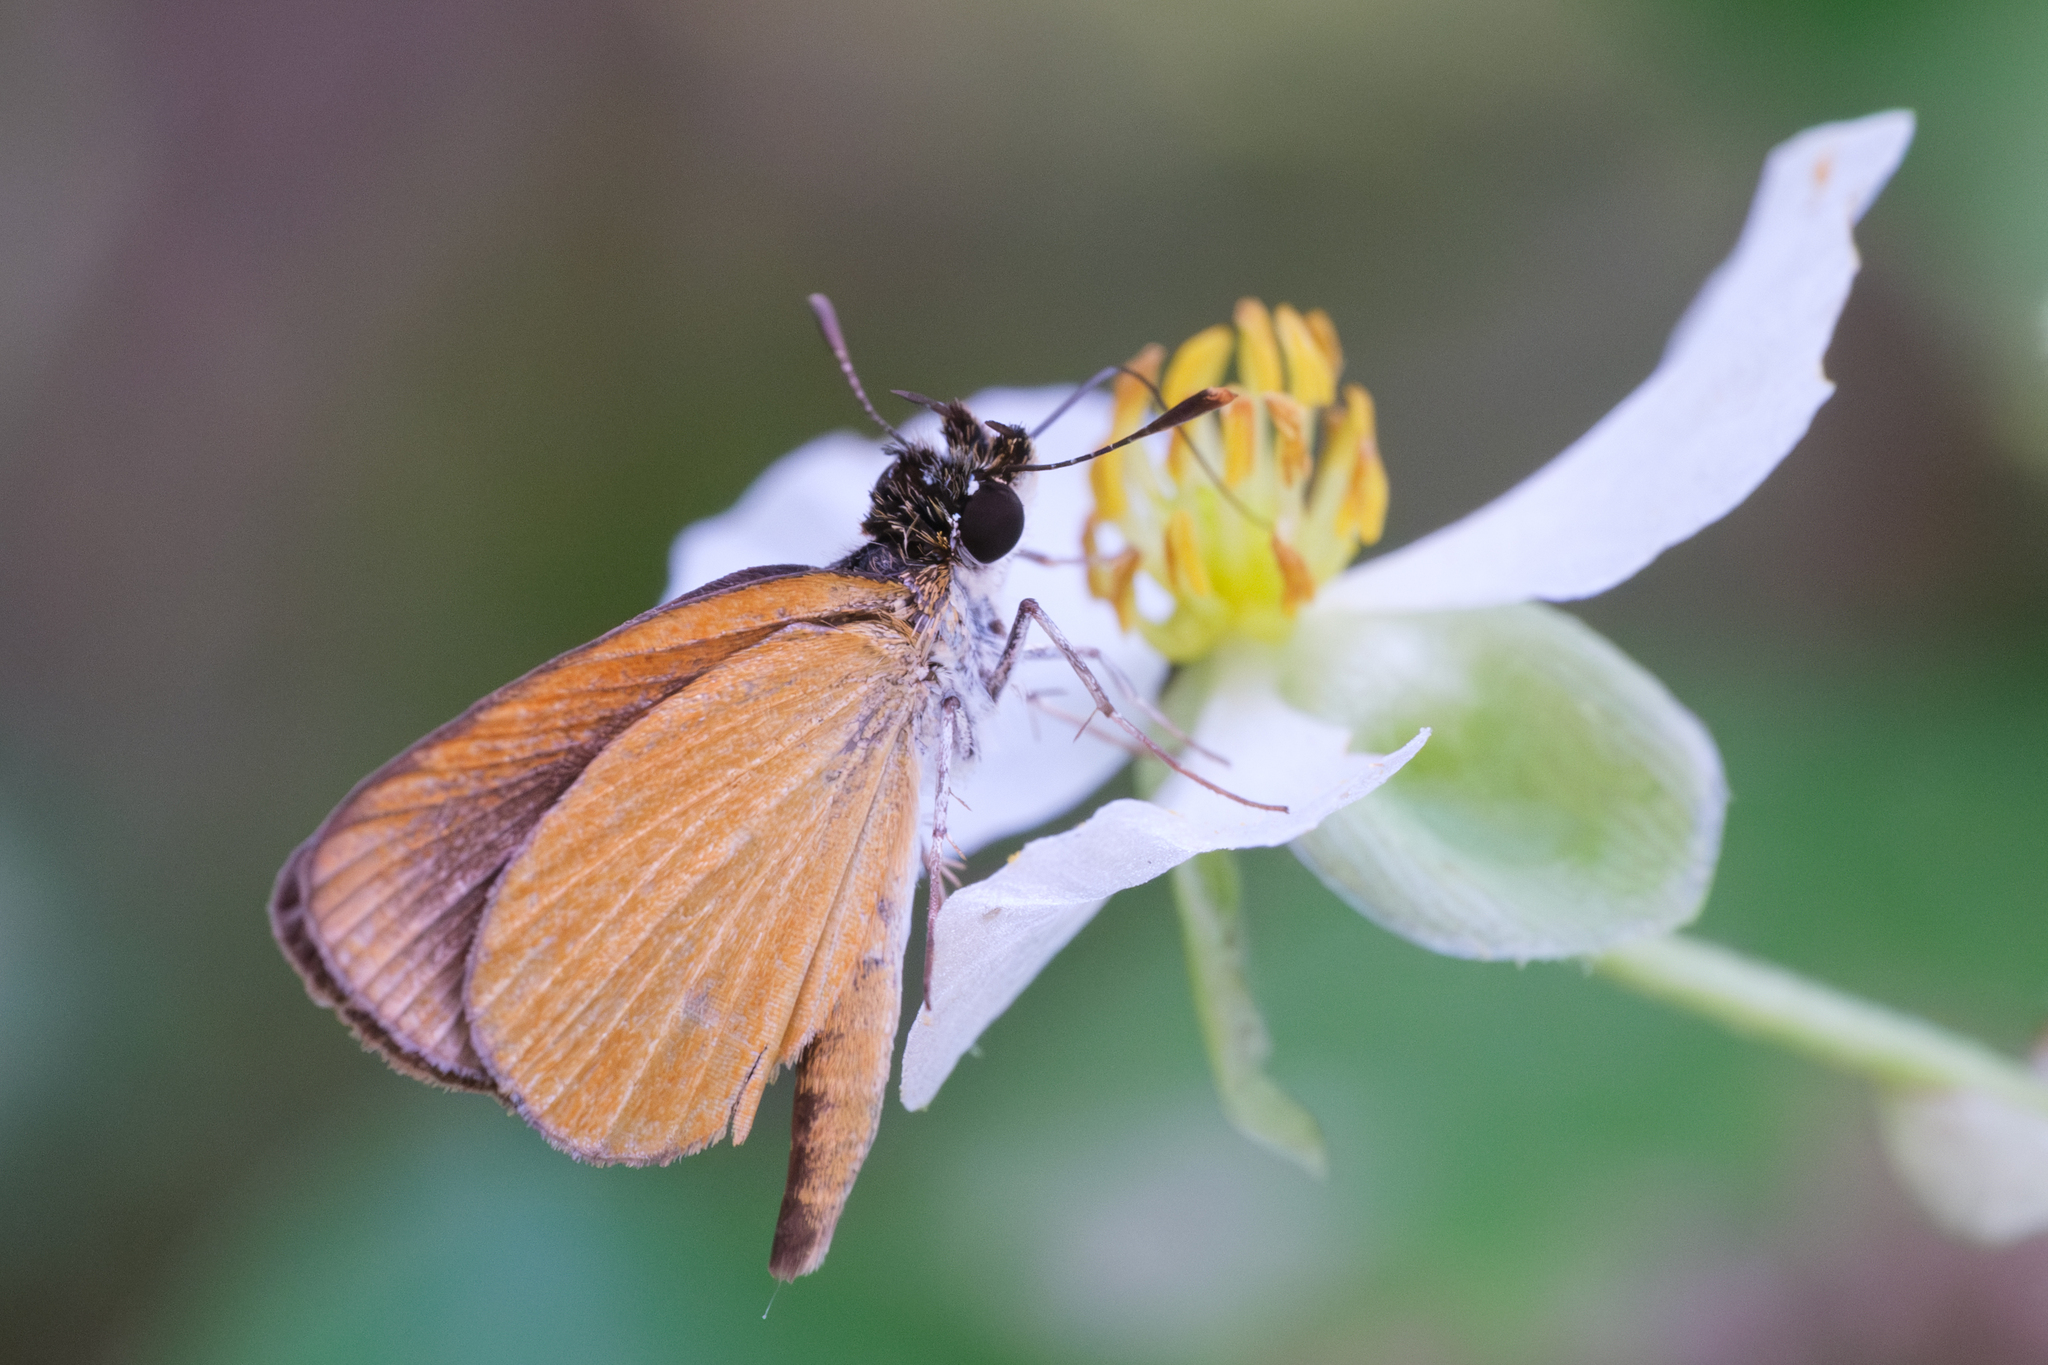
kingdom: Animalia
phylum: Arthropoda
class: Insecta
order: Lepidoptera
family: Hesperiidae
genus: Ancyloxypha
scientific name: Ancyloxypha numitor
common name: Least skipper
